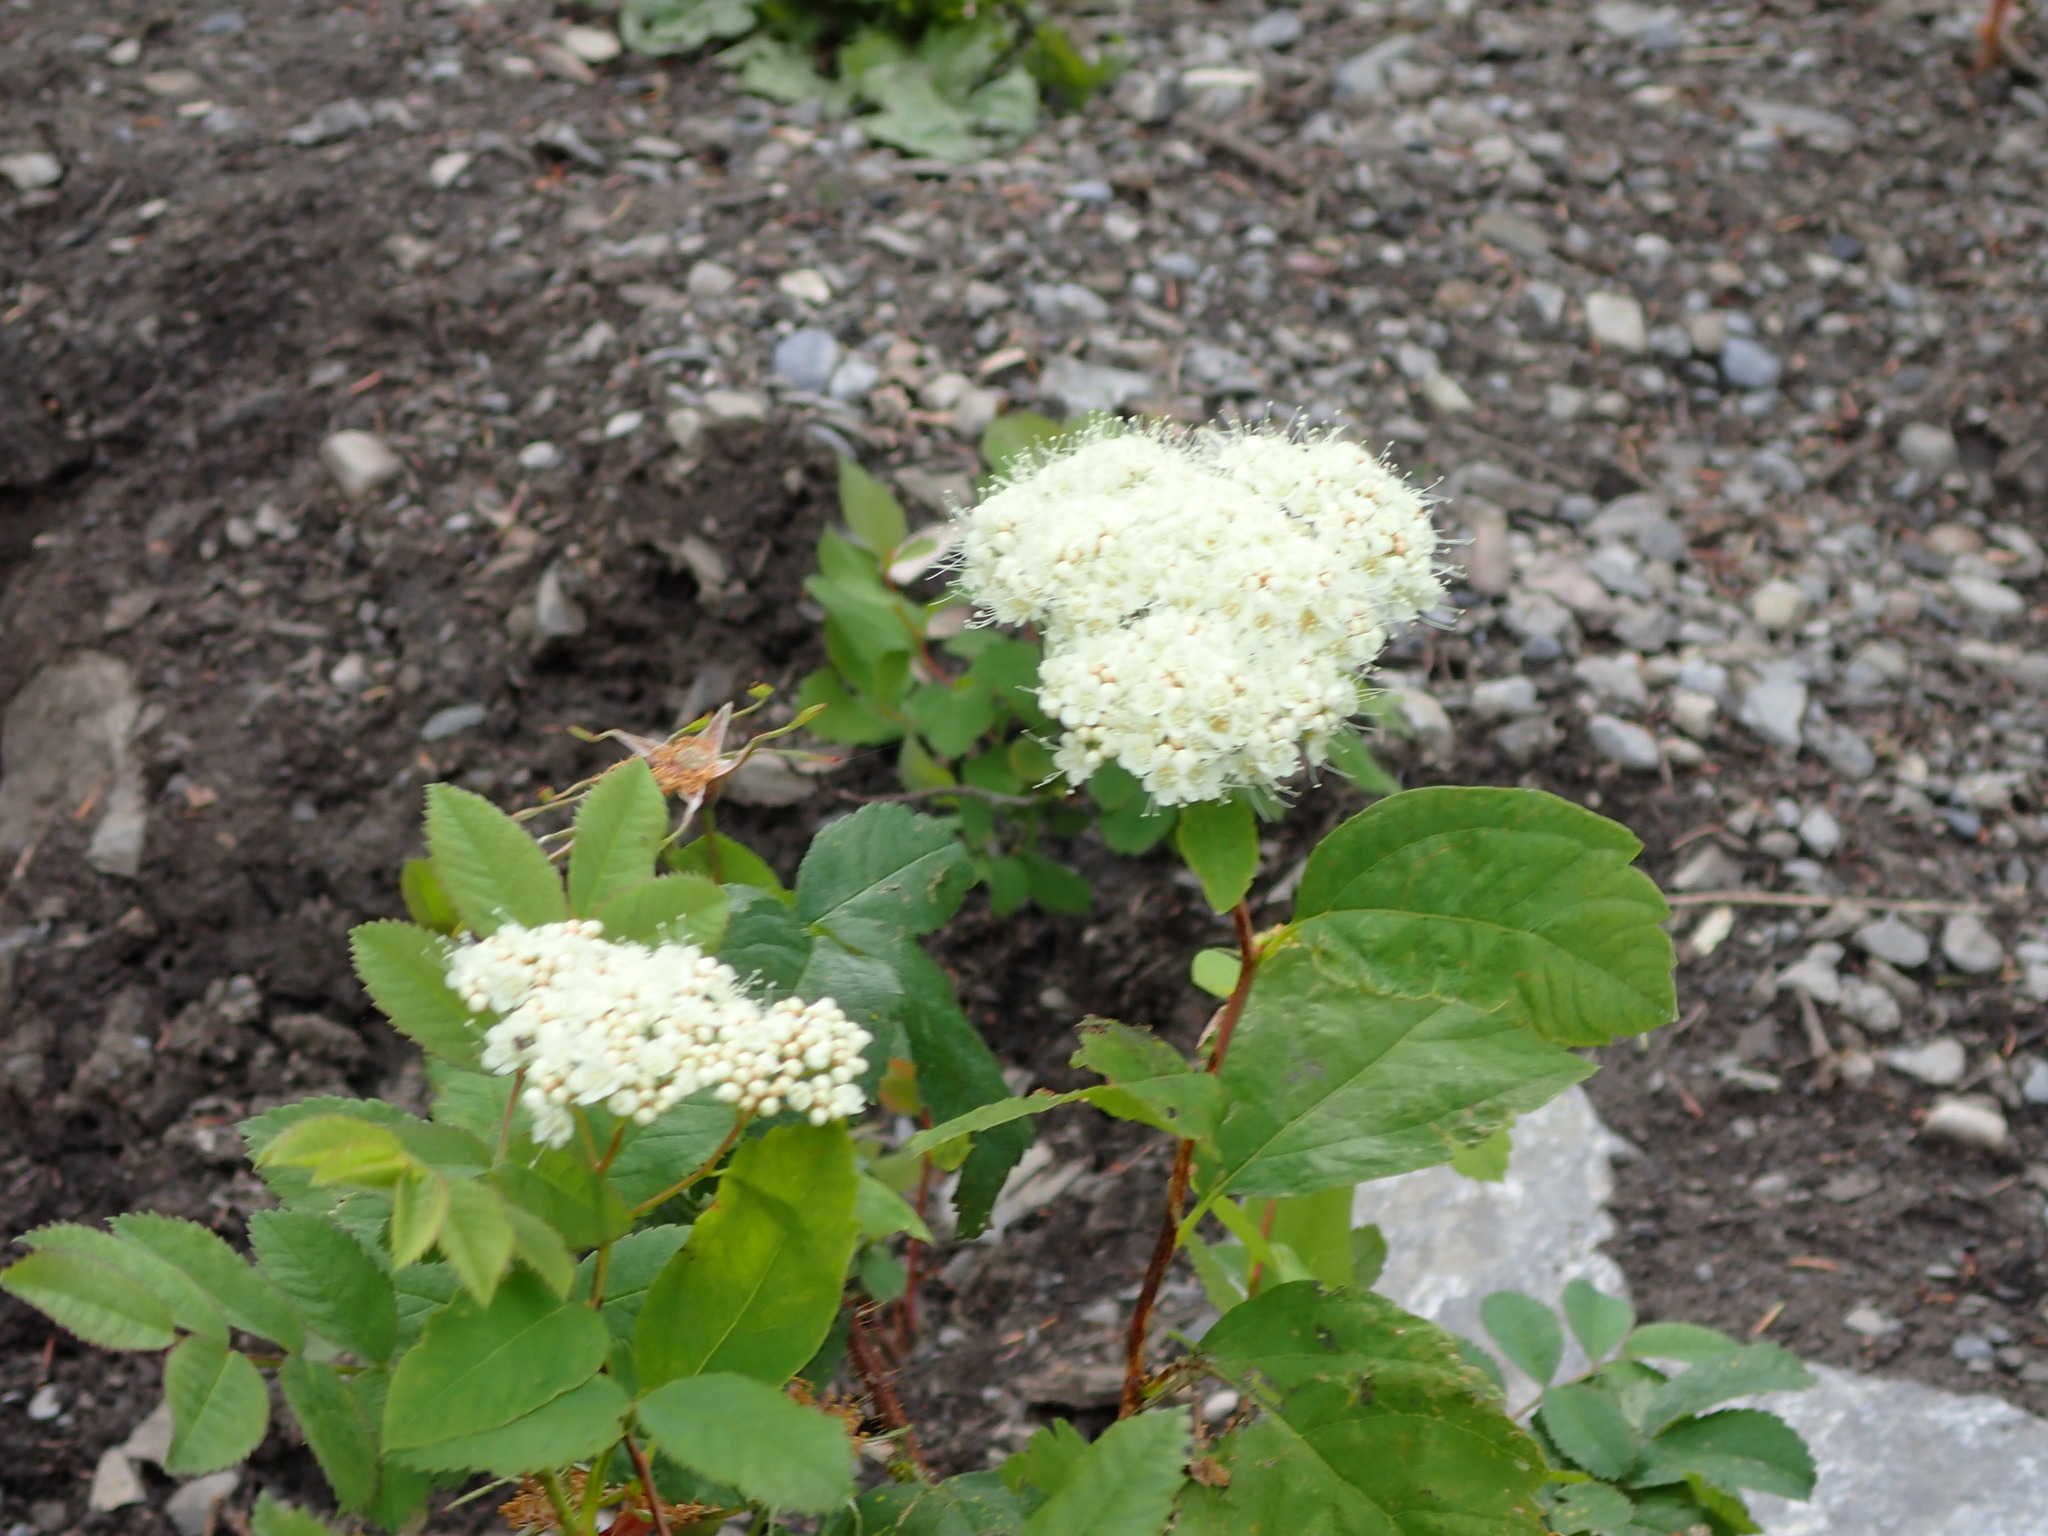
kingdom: Plantae
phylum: Tracheophyta
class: Magnoliopsida
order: Rosales
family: Rosaceae
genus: Spiraea
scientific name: Spiraea lucida
